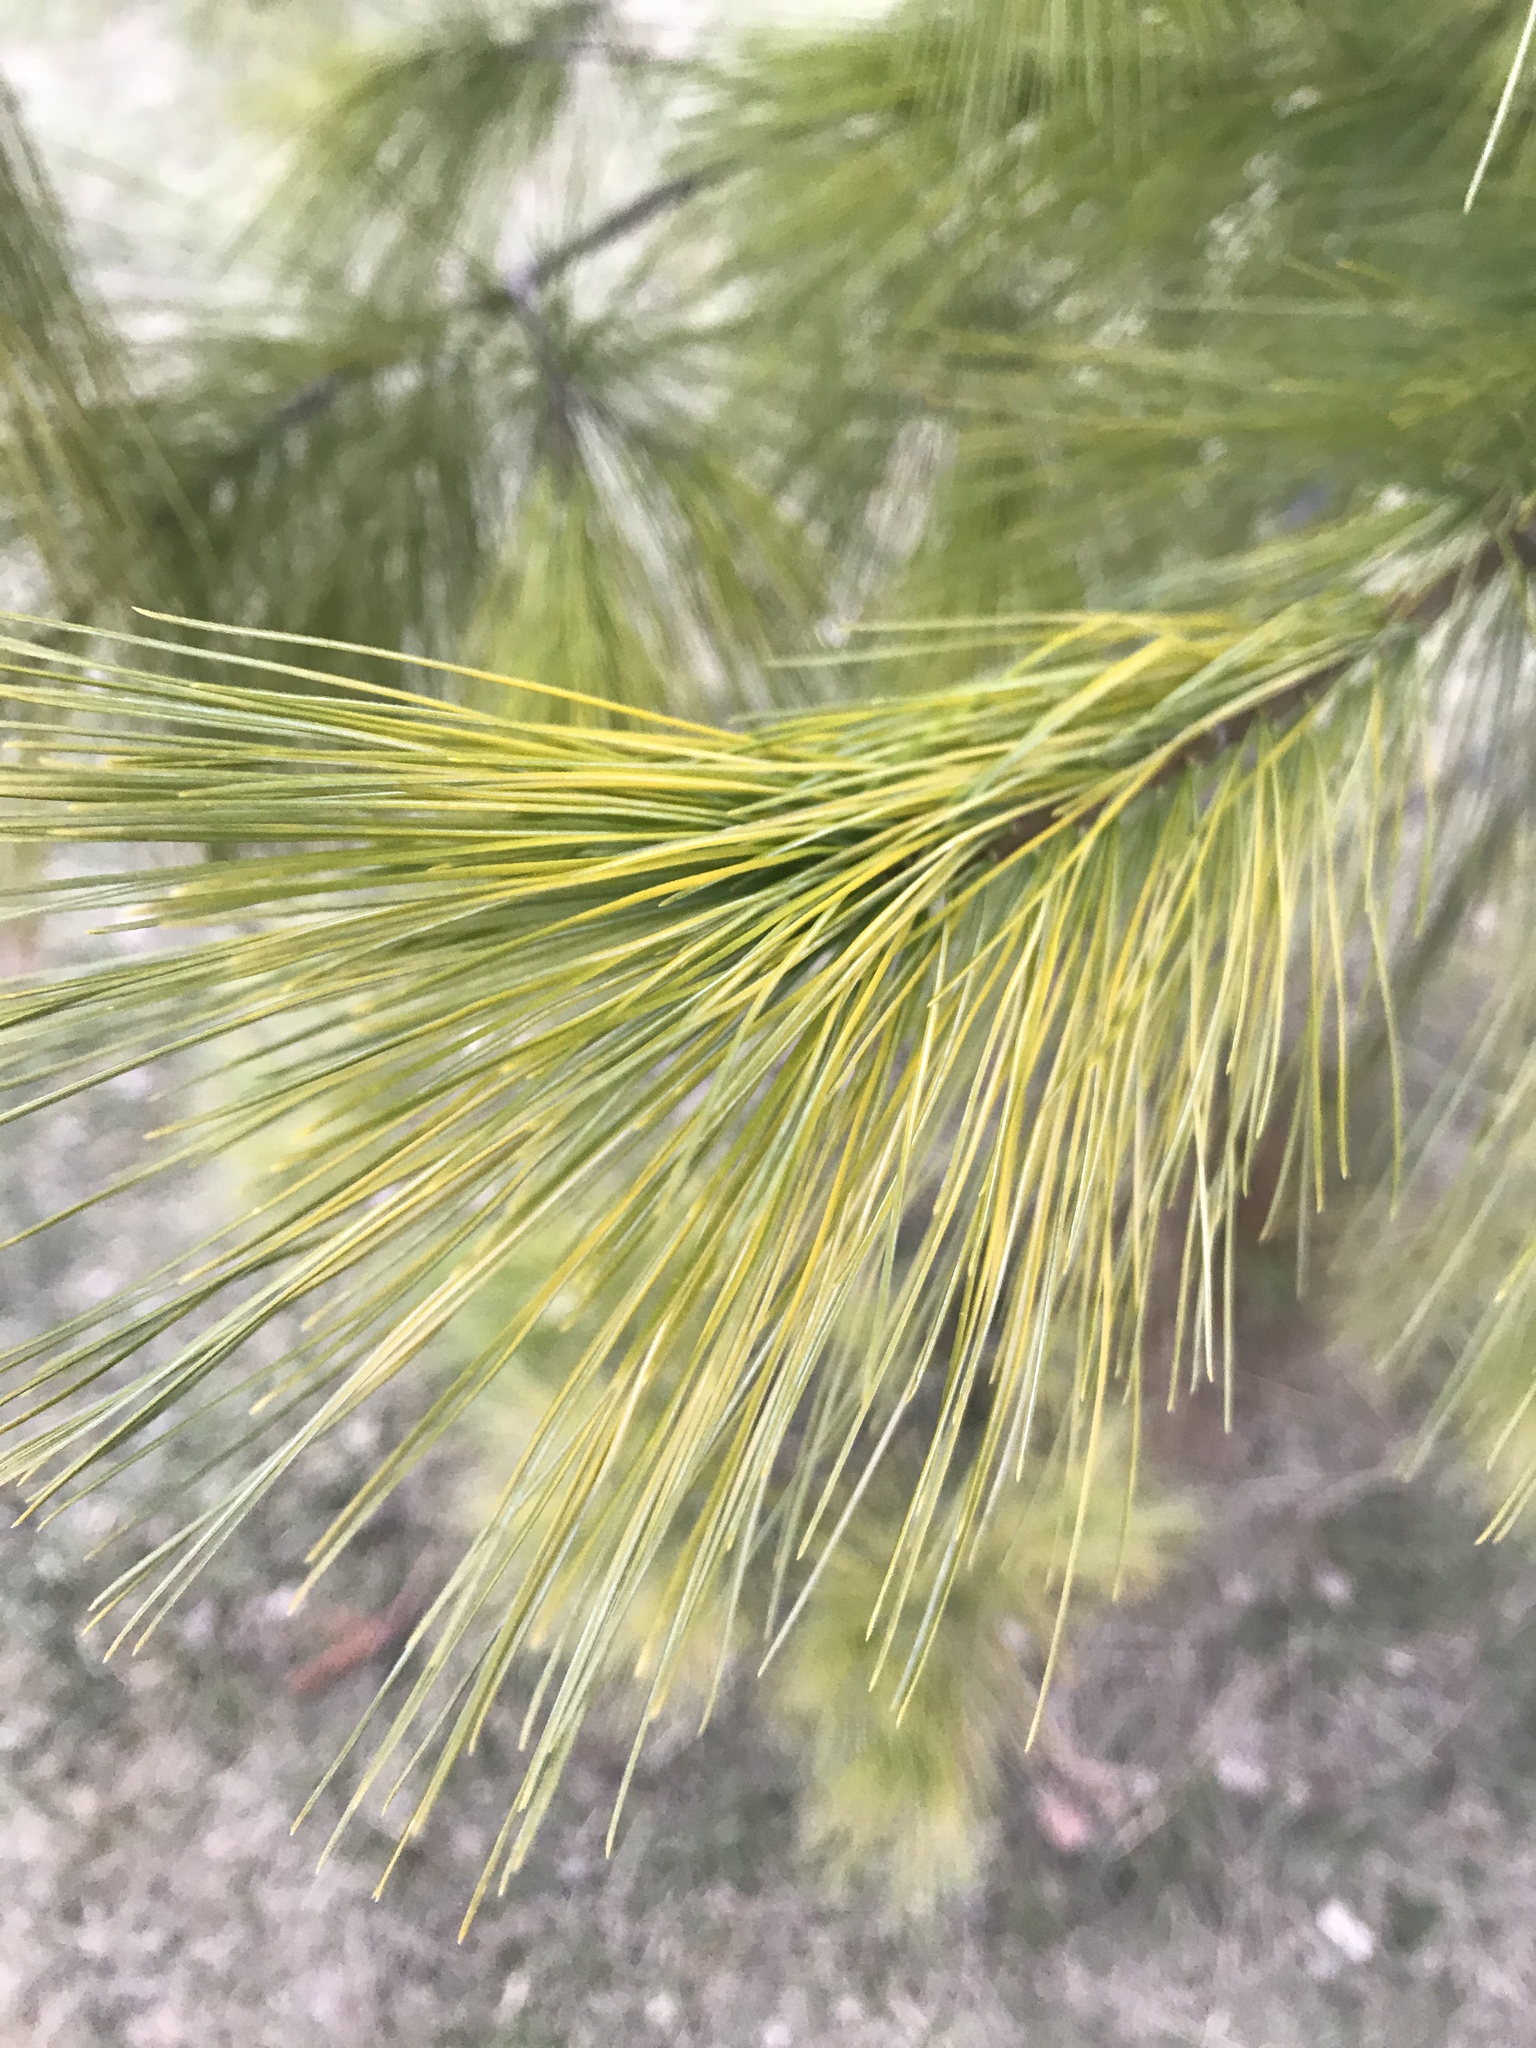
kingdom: Plantae
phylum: Tracheophyta
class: Pinopsida
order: Pinales
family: Pinaceae
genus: Pinus
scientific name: Pinus strobus
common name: Weymouth pine
